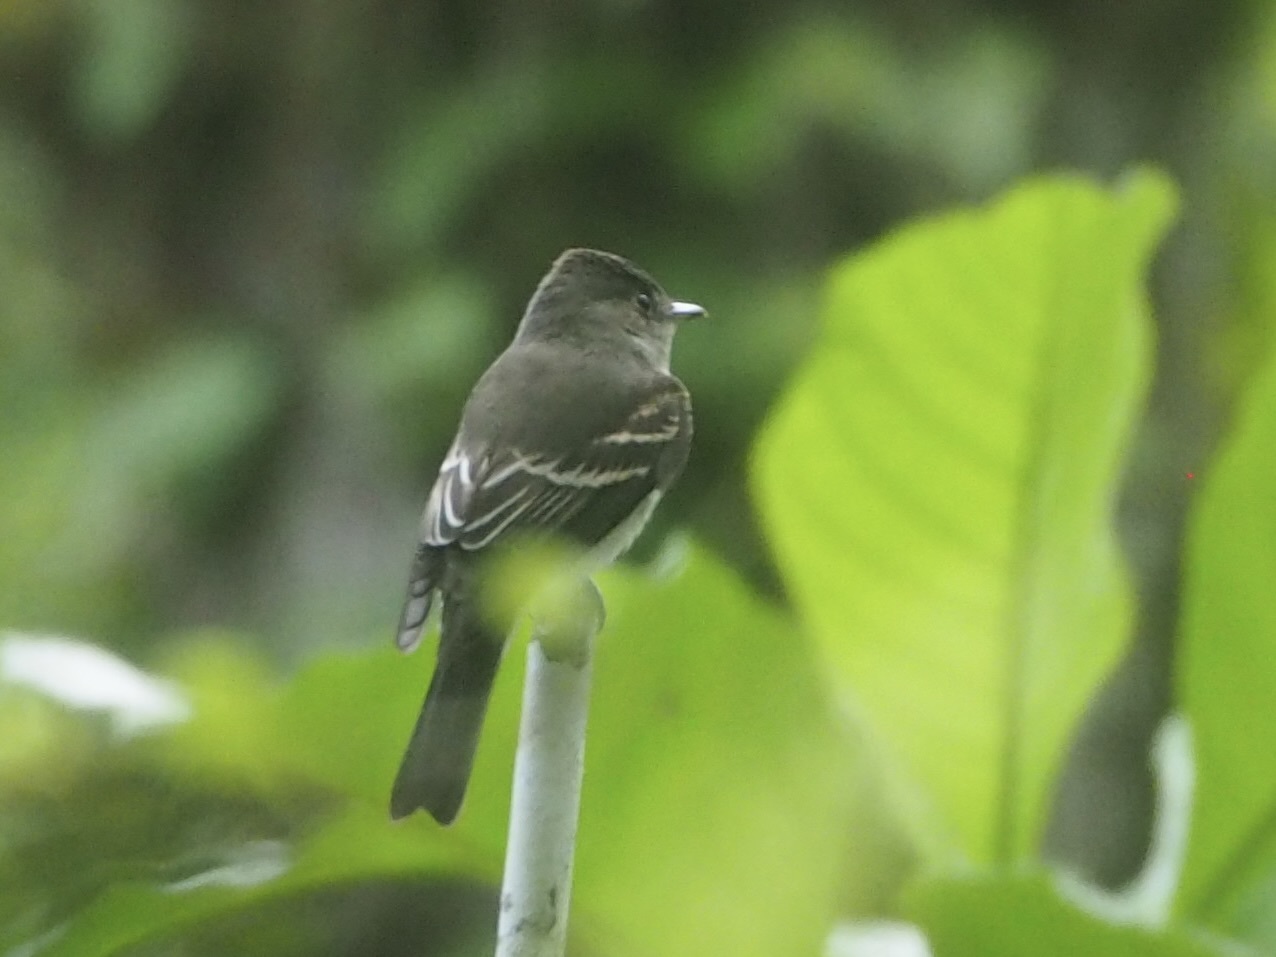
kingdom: Animalia
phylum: Chordata
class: Aves
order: Passeriformes
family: Tyrannidae
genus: Contopus
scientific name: Contopus
